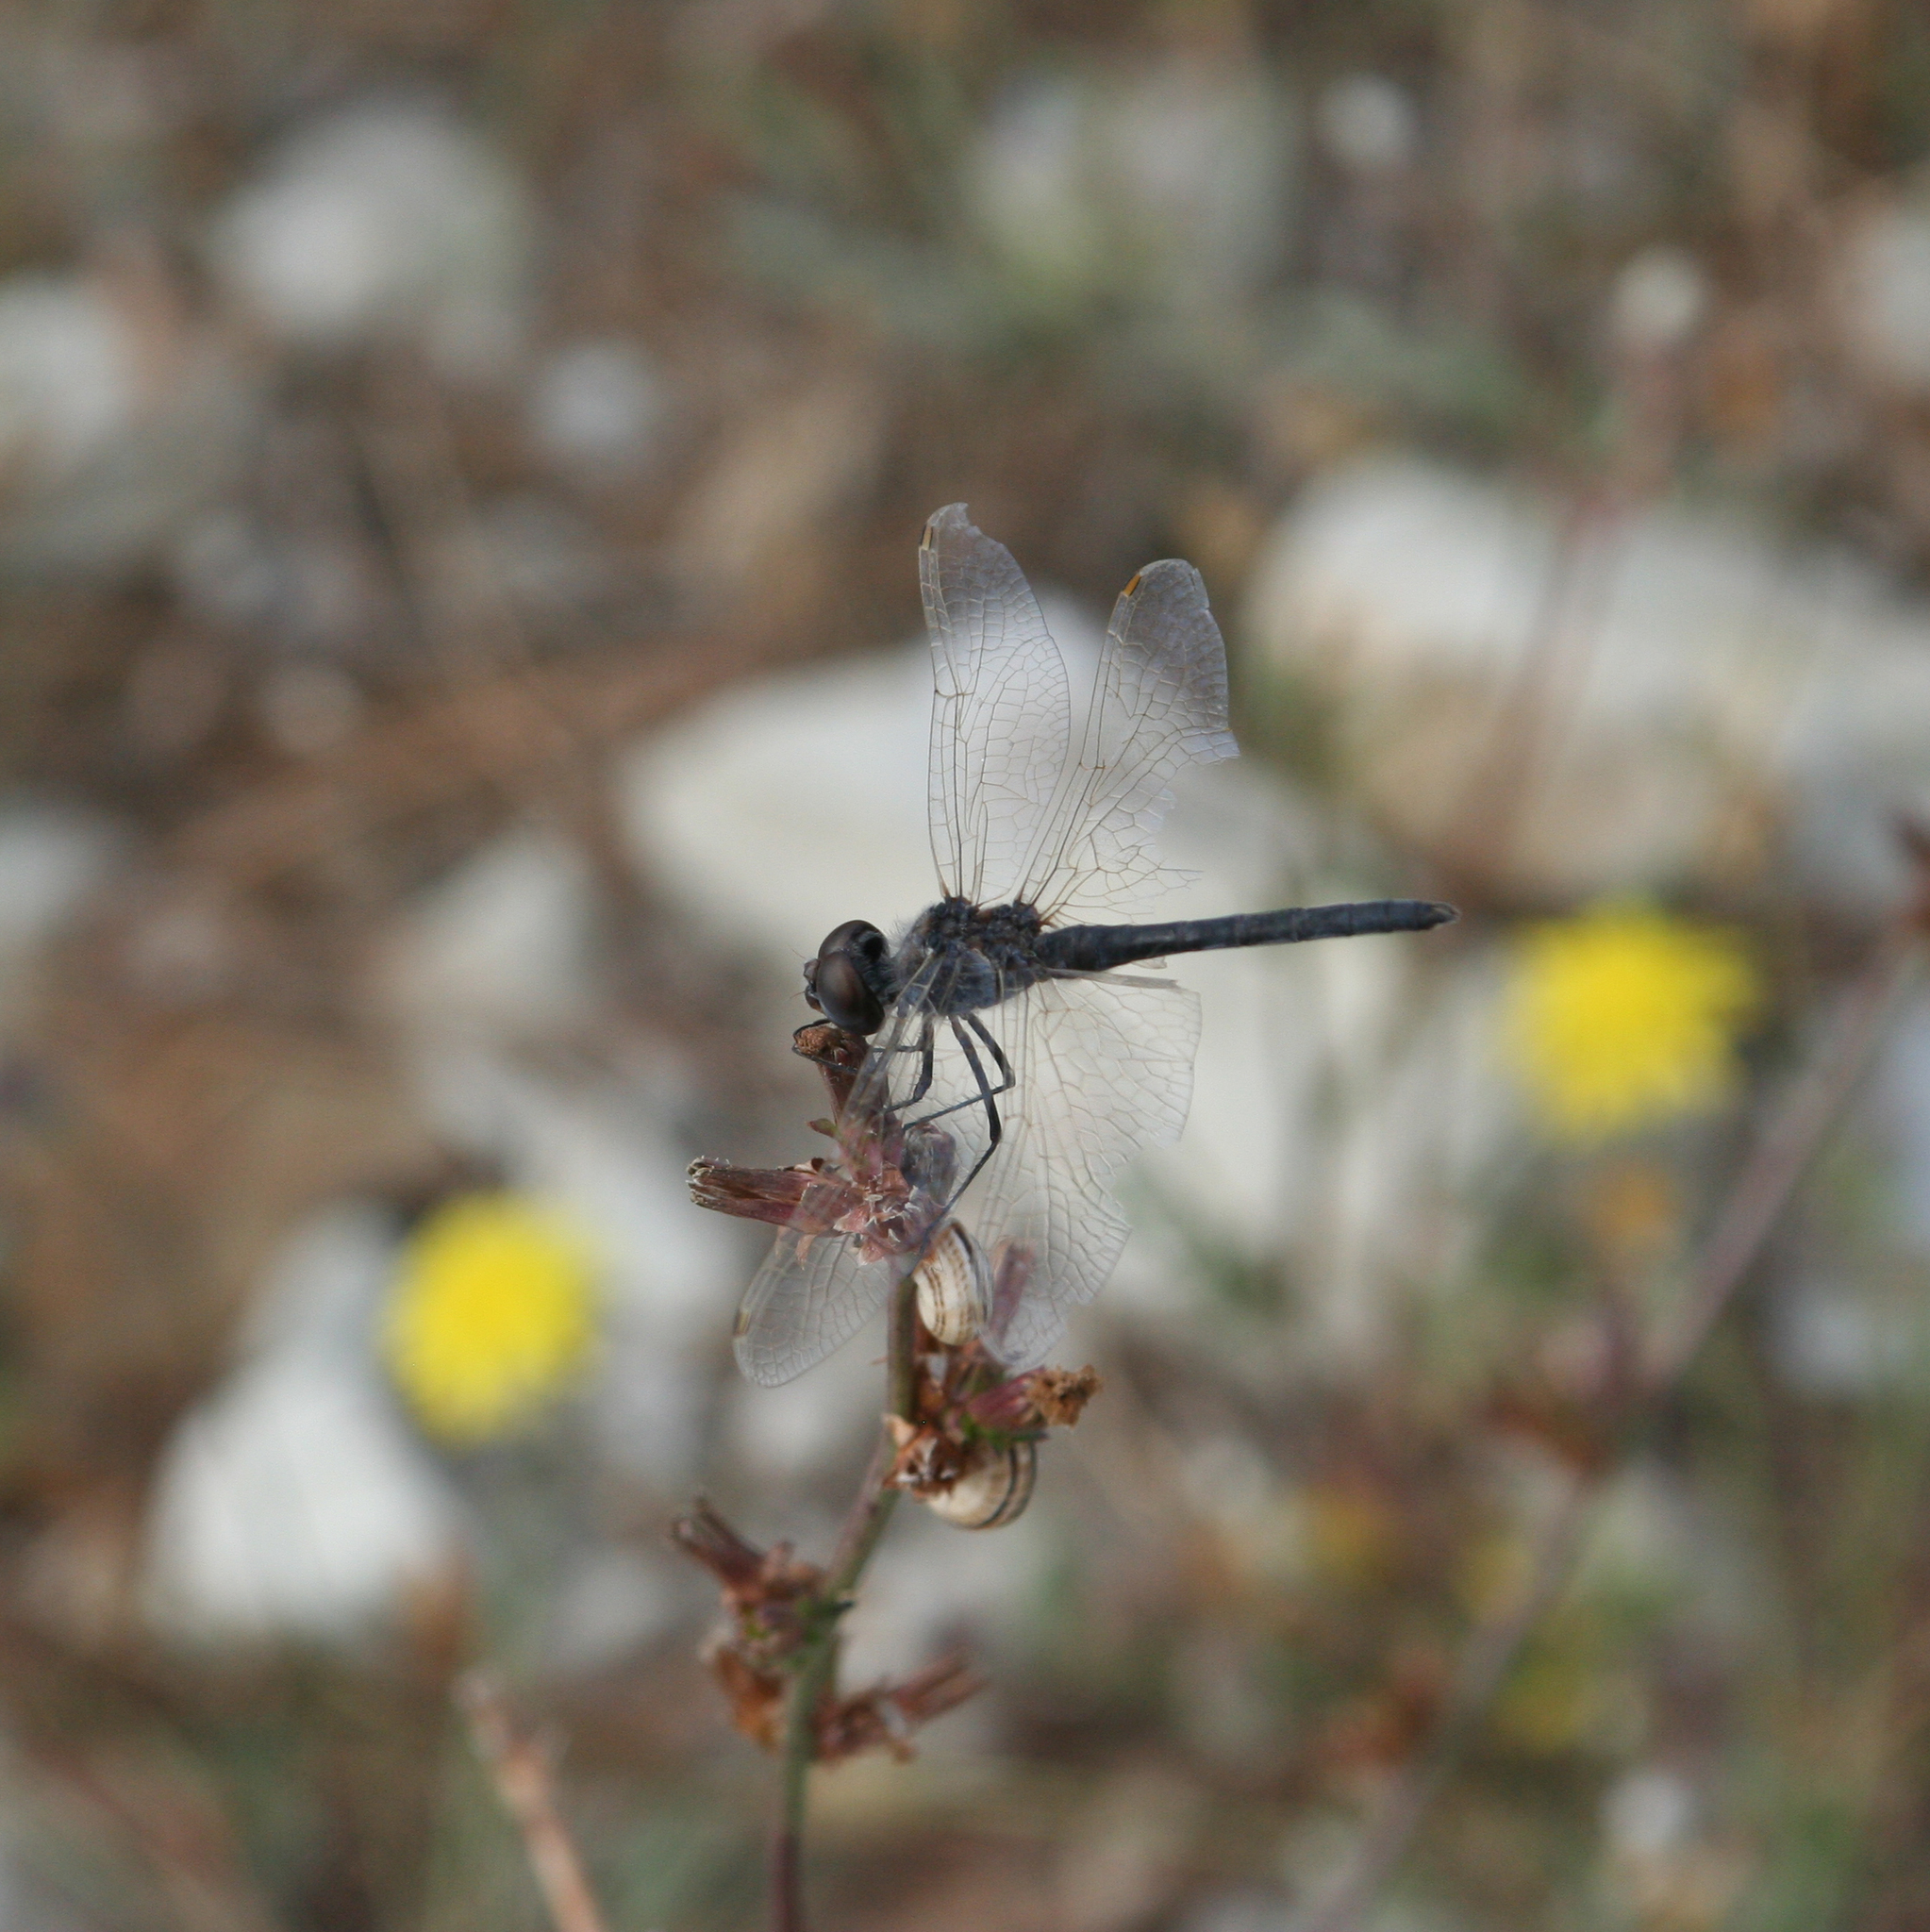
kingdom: Animalia
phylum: Arthropoda
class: Insecta
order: Odonata
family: Libellulidae
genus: Selysiothemis
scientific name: Selysiothemis nigra
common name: Black pennant
